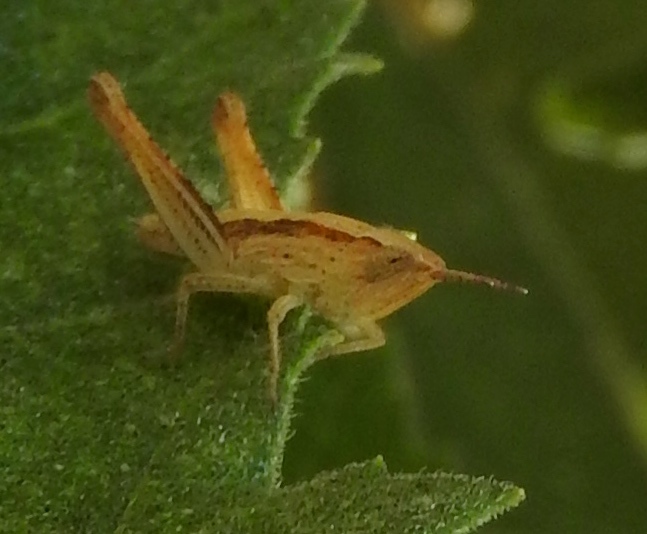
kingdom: Animalia
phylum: Arthropoda
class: Insecta
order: Orthoptera
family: Acrididae
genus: Dichromorpha
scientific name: Dichromorpha prominula
